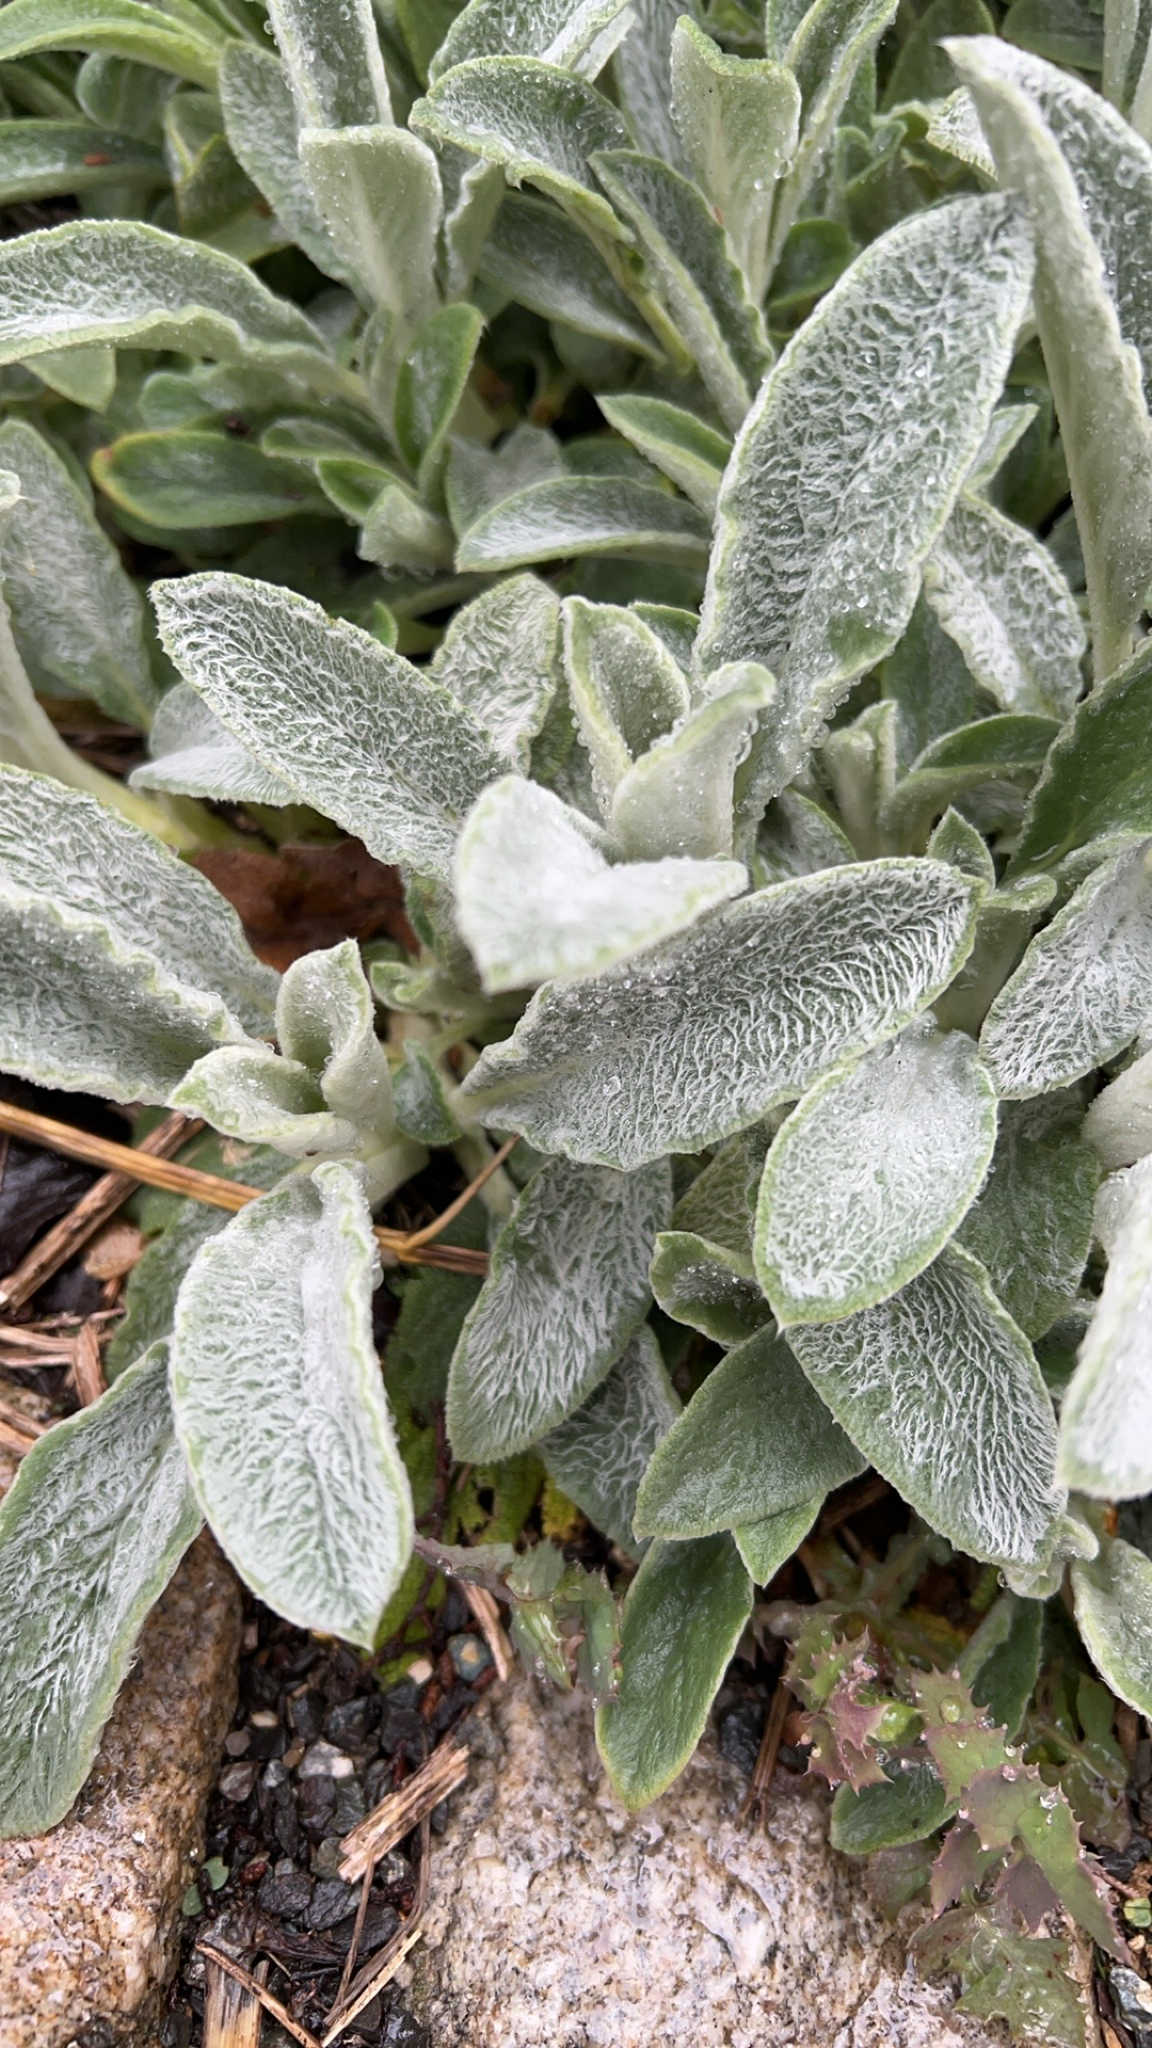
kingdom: Plantae
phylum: Tracheophyta
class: Magnoliopsida
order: Lamiales
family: Lamiaceae
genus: Stachys
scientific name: Stachys byzantina
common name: Lamb's-ear
